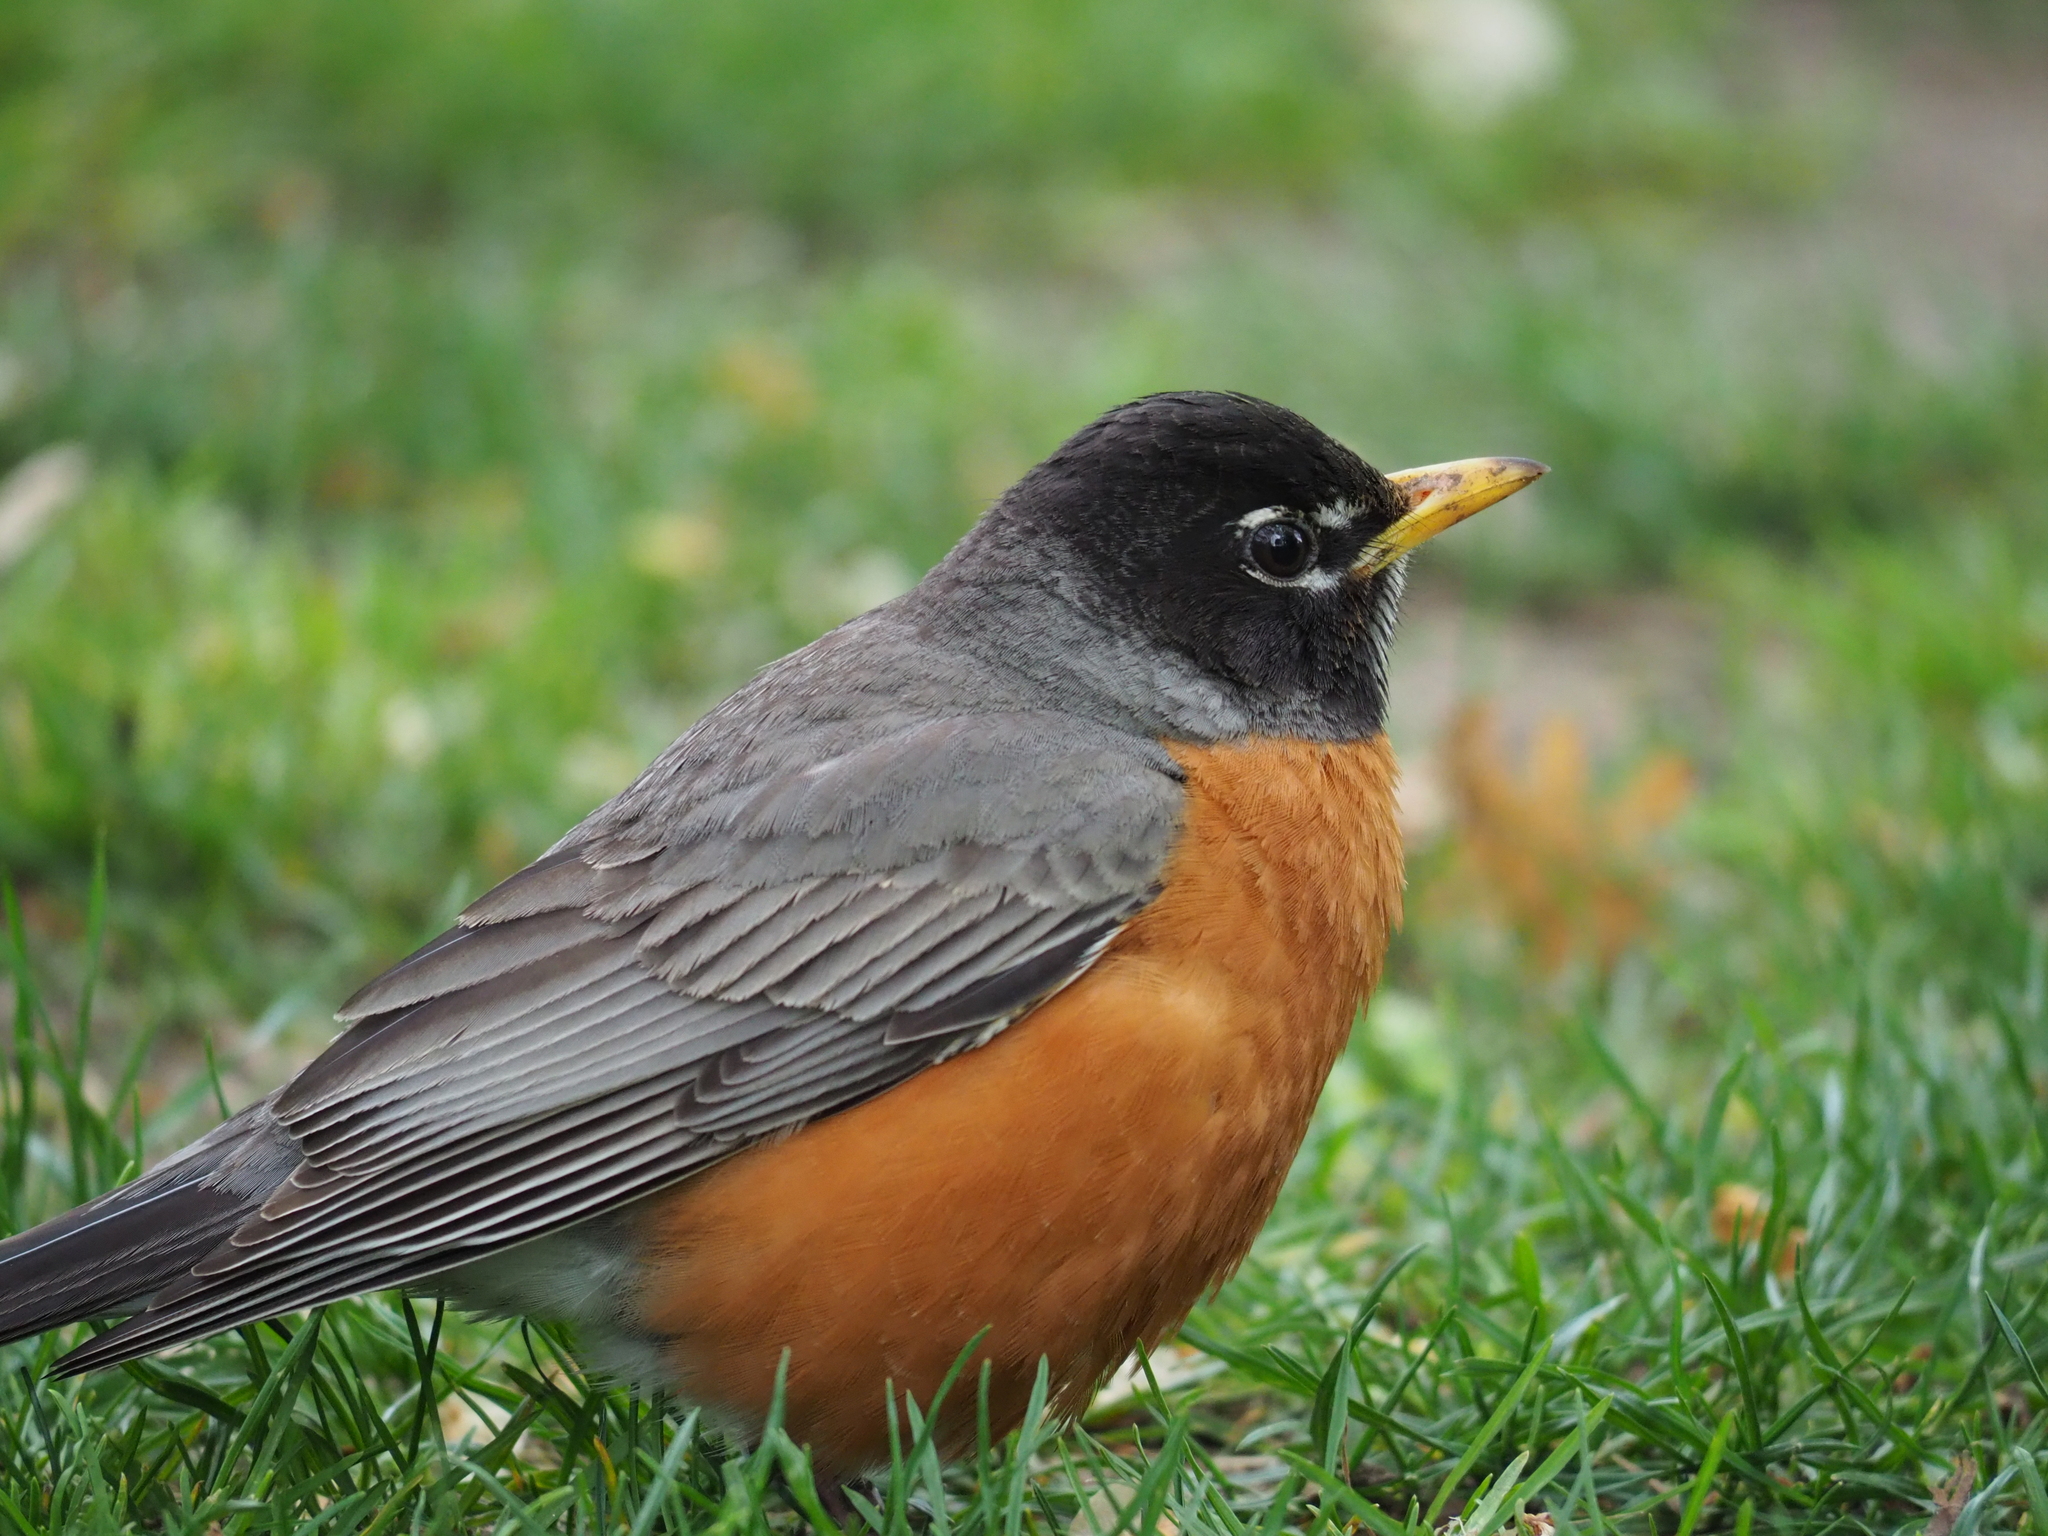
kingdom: Animalia
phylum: Chordata
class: Aves
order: Passeriformes
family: Turdidae
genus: Turdus
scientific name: Turdus migratorius
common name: American robin
